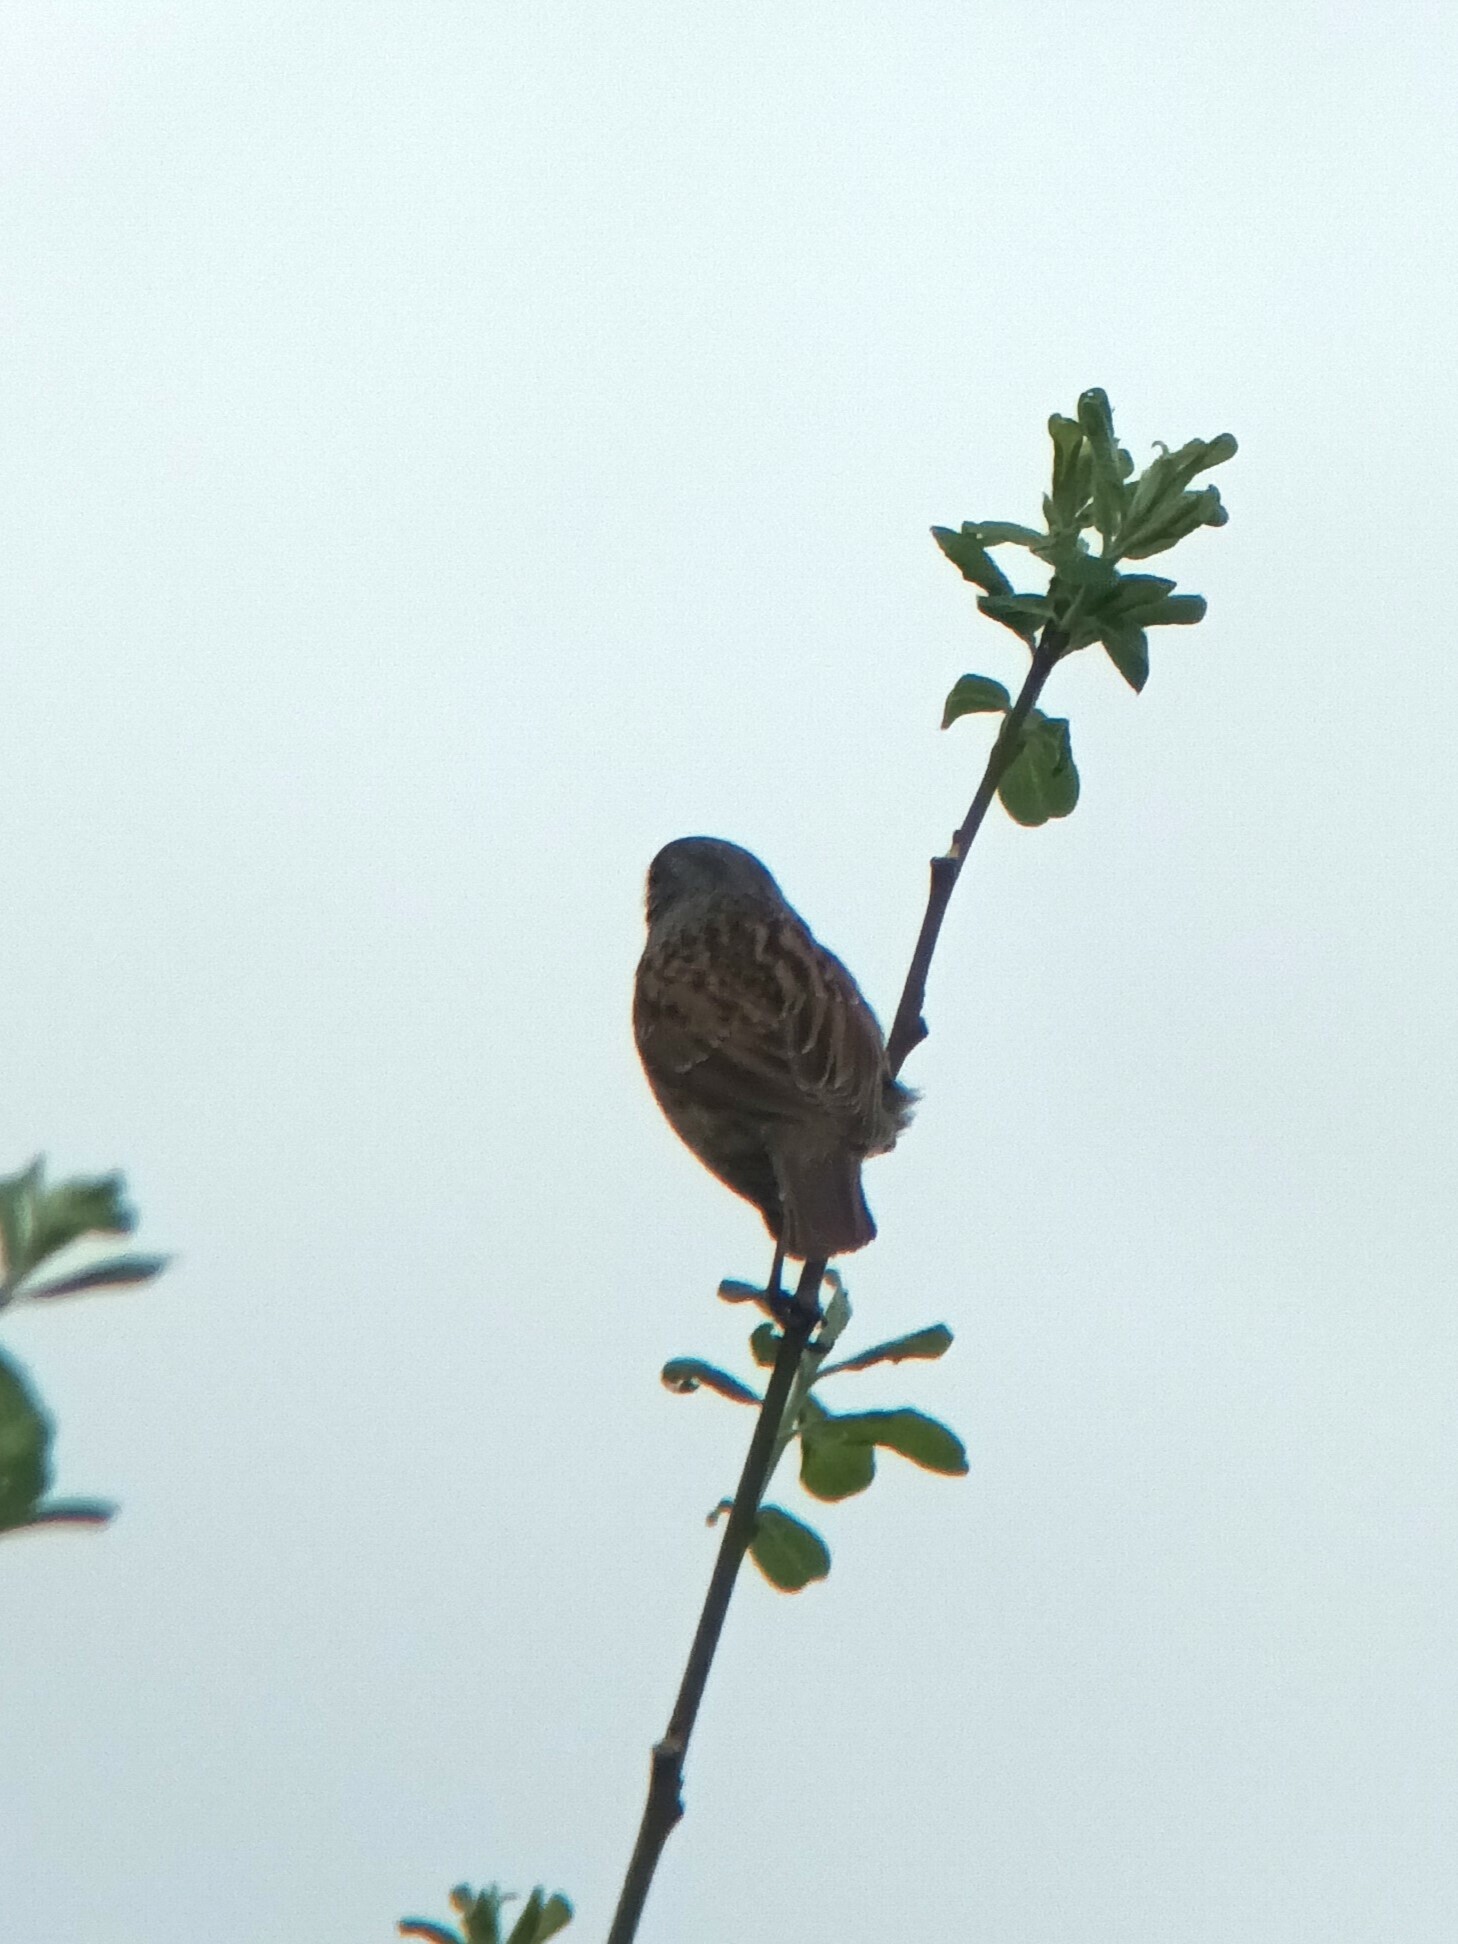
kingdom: Animalia
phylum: Chordata
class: Aves
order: Passeriformes
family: Prunellidae
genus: Prunella
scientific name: Prunella modularis
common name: Dunnock
